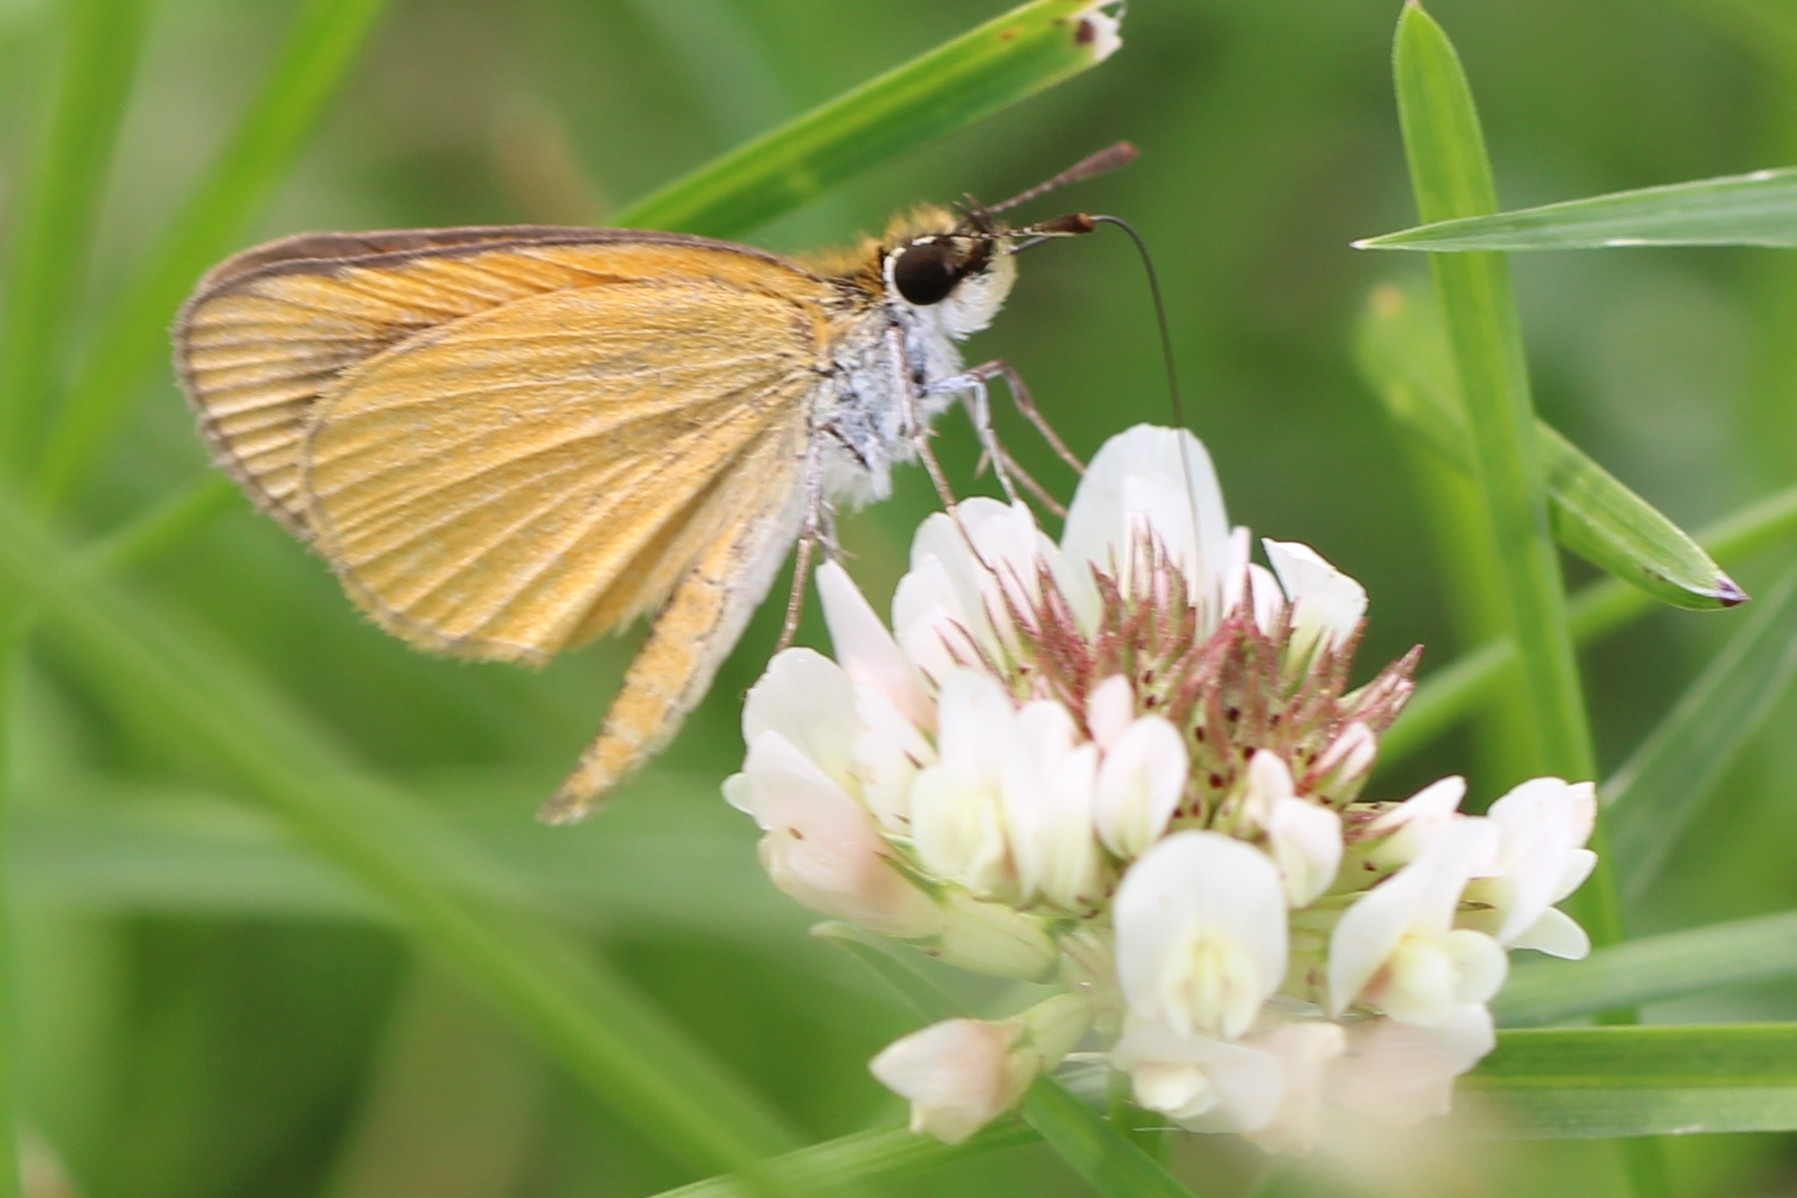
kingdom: Animalia
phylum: Arthropoda
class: Insecta
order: Lepidoptera
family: Hesperiidae
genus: Ancyloxypha
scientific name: Ancyloxypha numitor
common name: Least skipper
